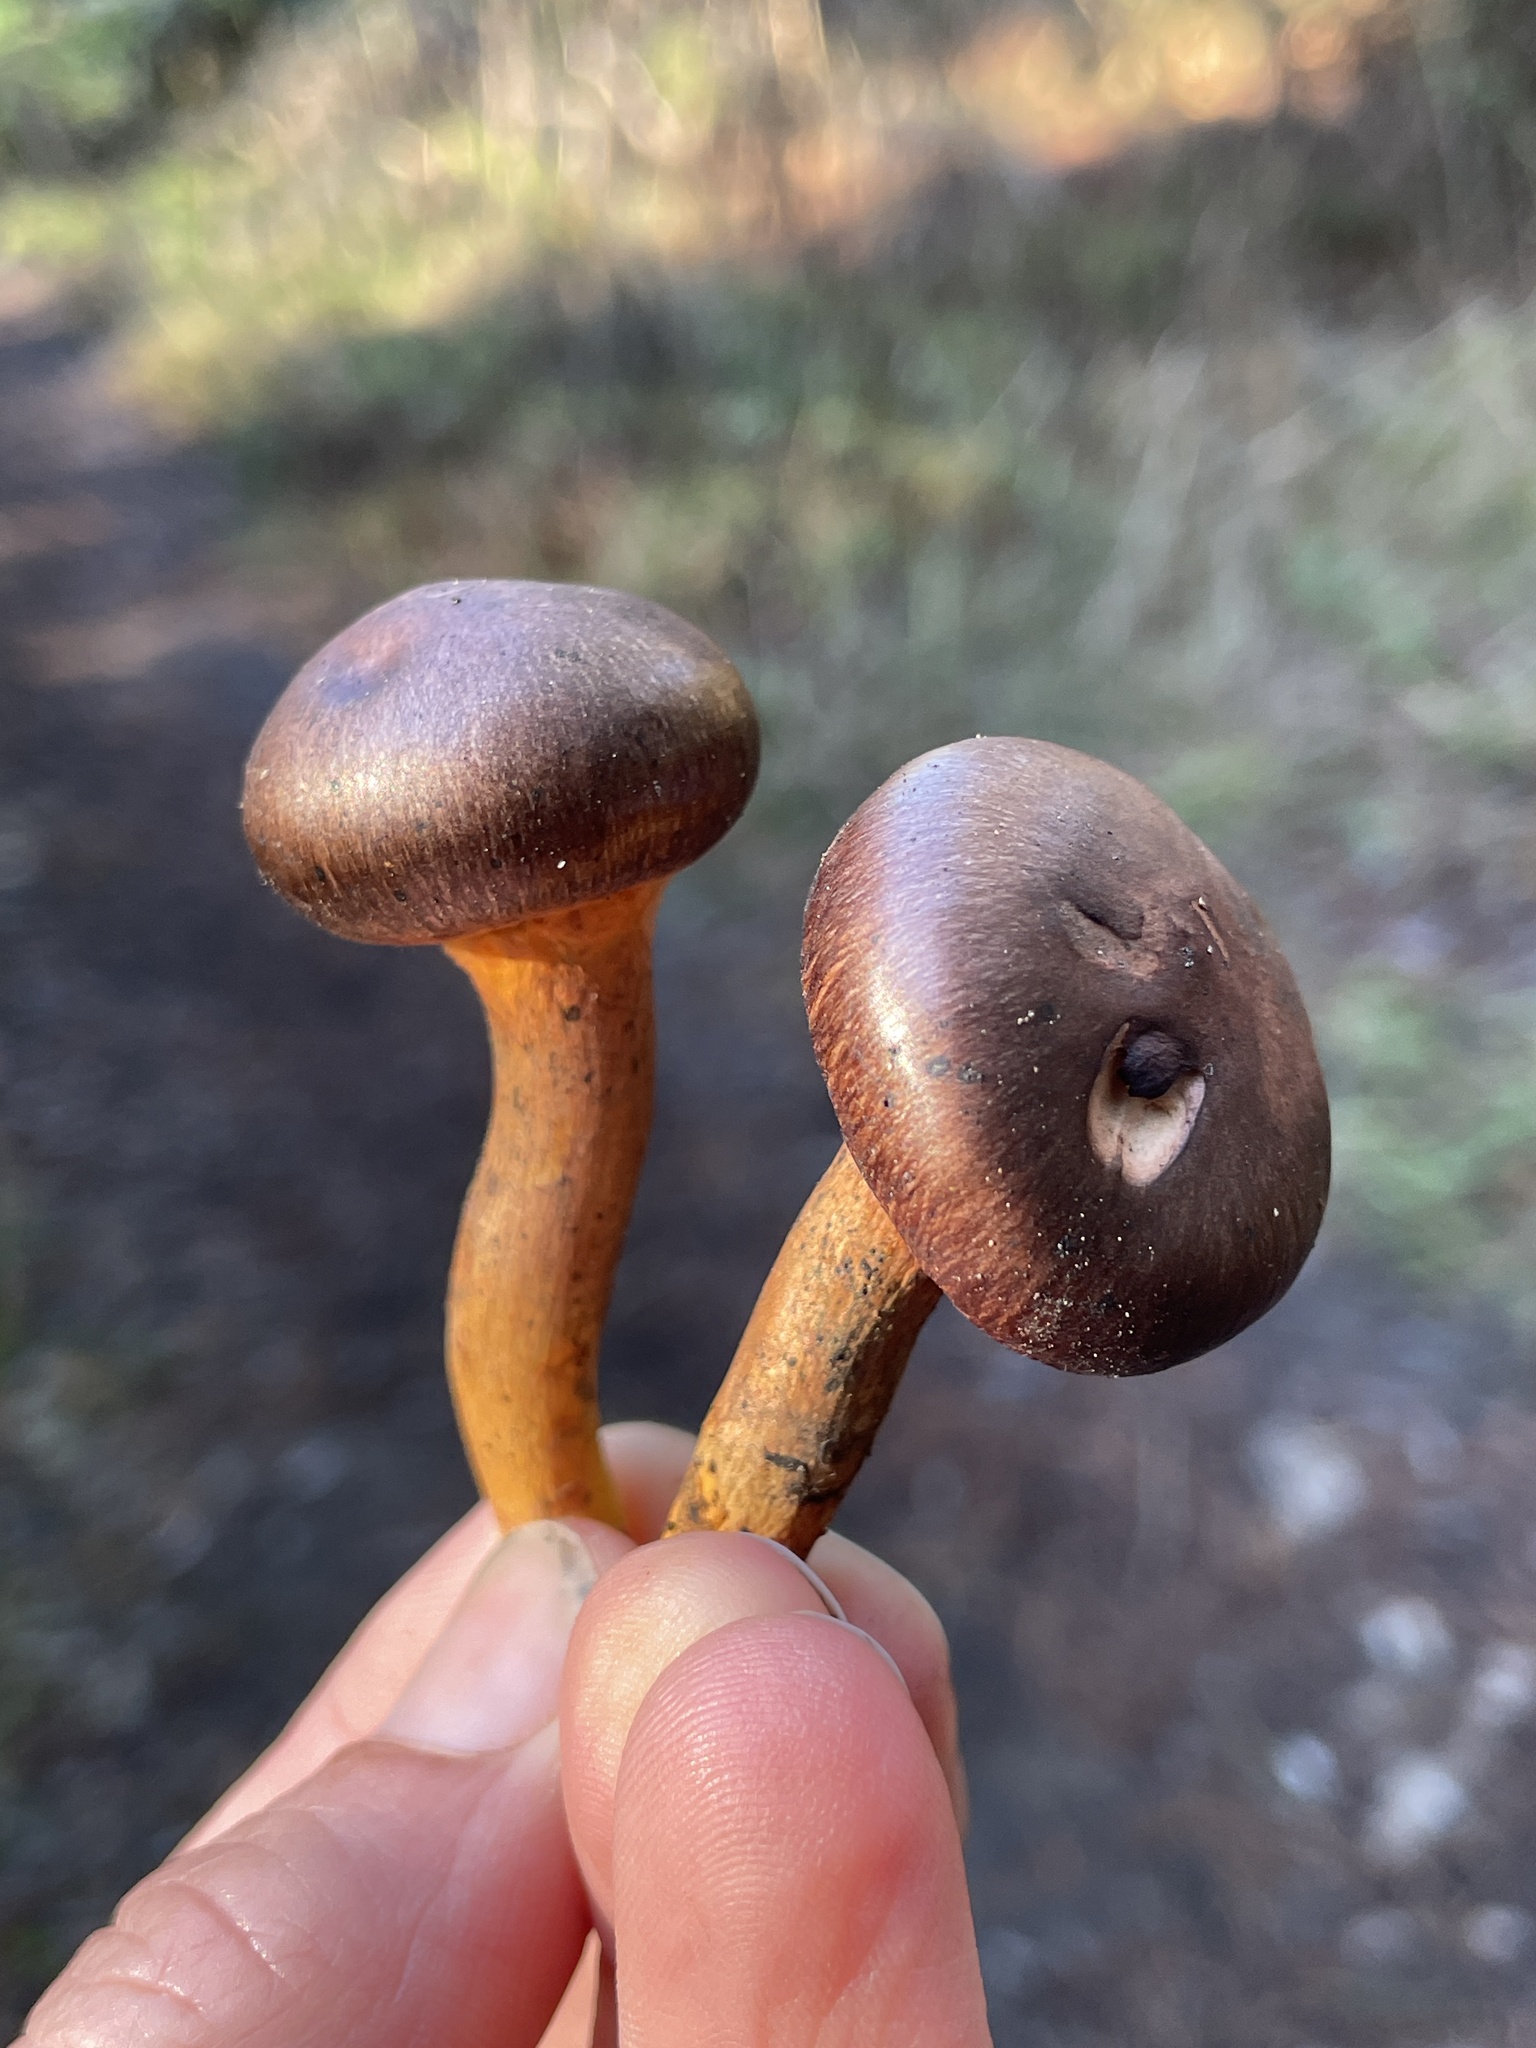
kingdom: Fungi
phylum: Basidiomycota
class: Agaricomycetes
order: Boletales
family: Gomphidiaceae
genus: Chroogomphus
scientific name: Chroogomphus vinicolor
